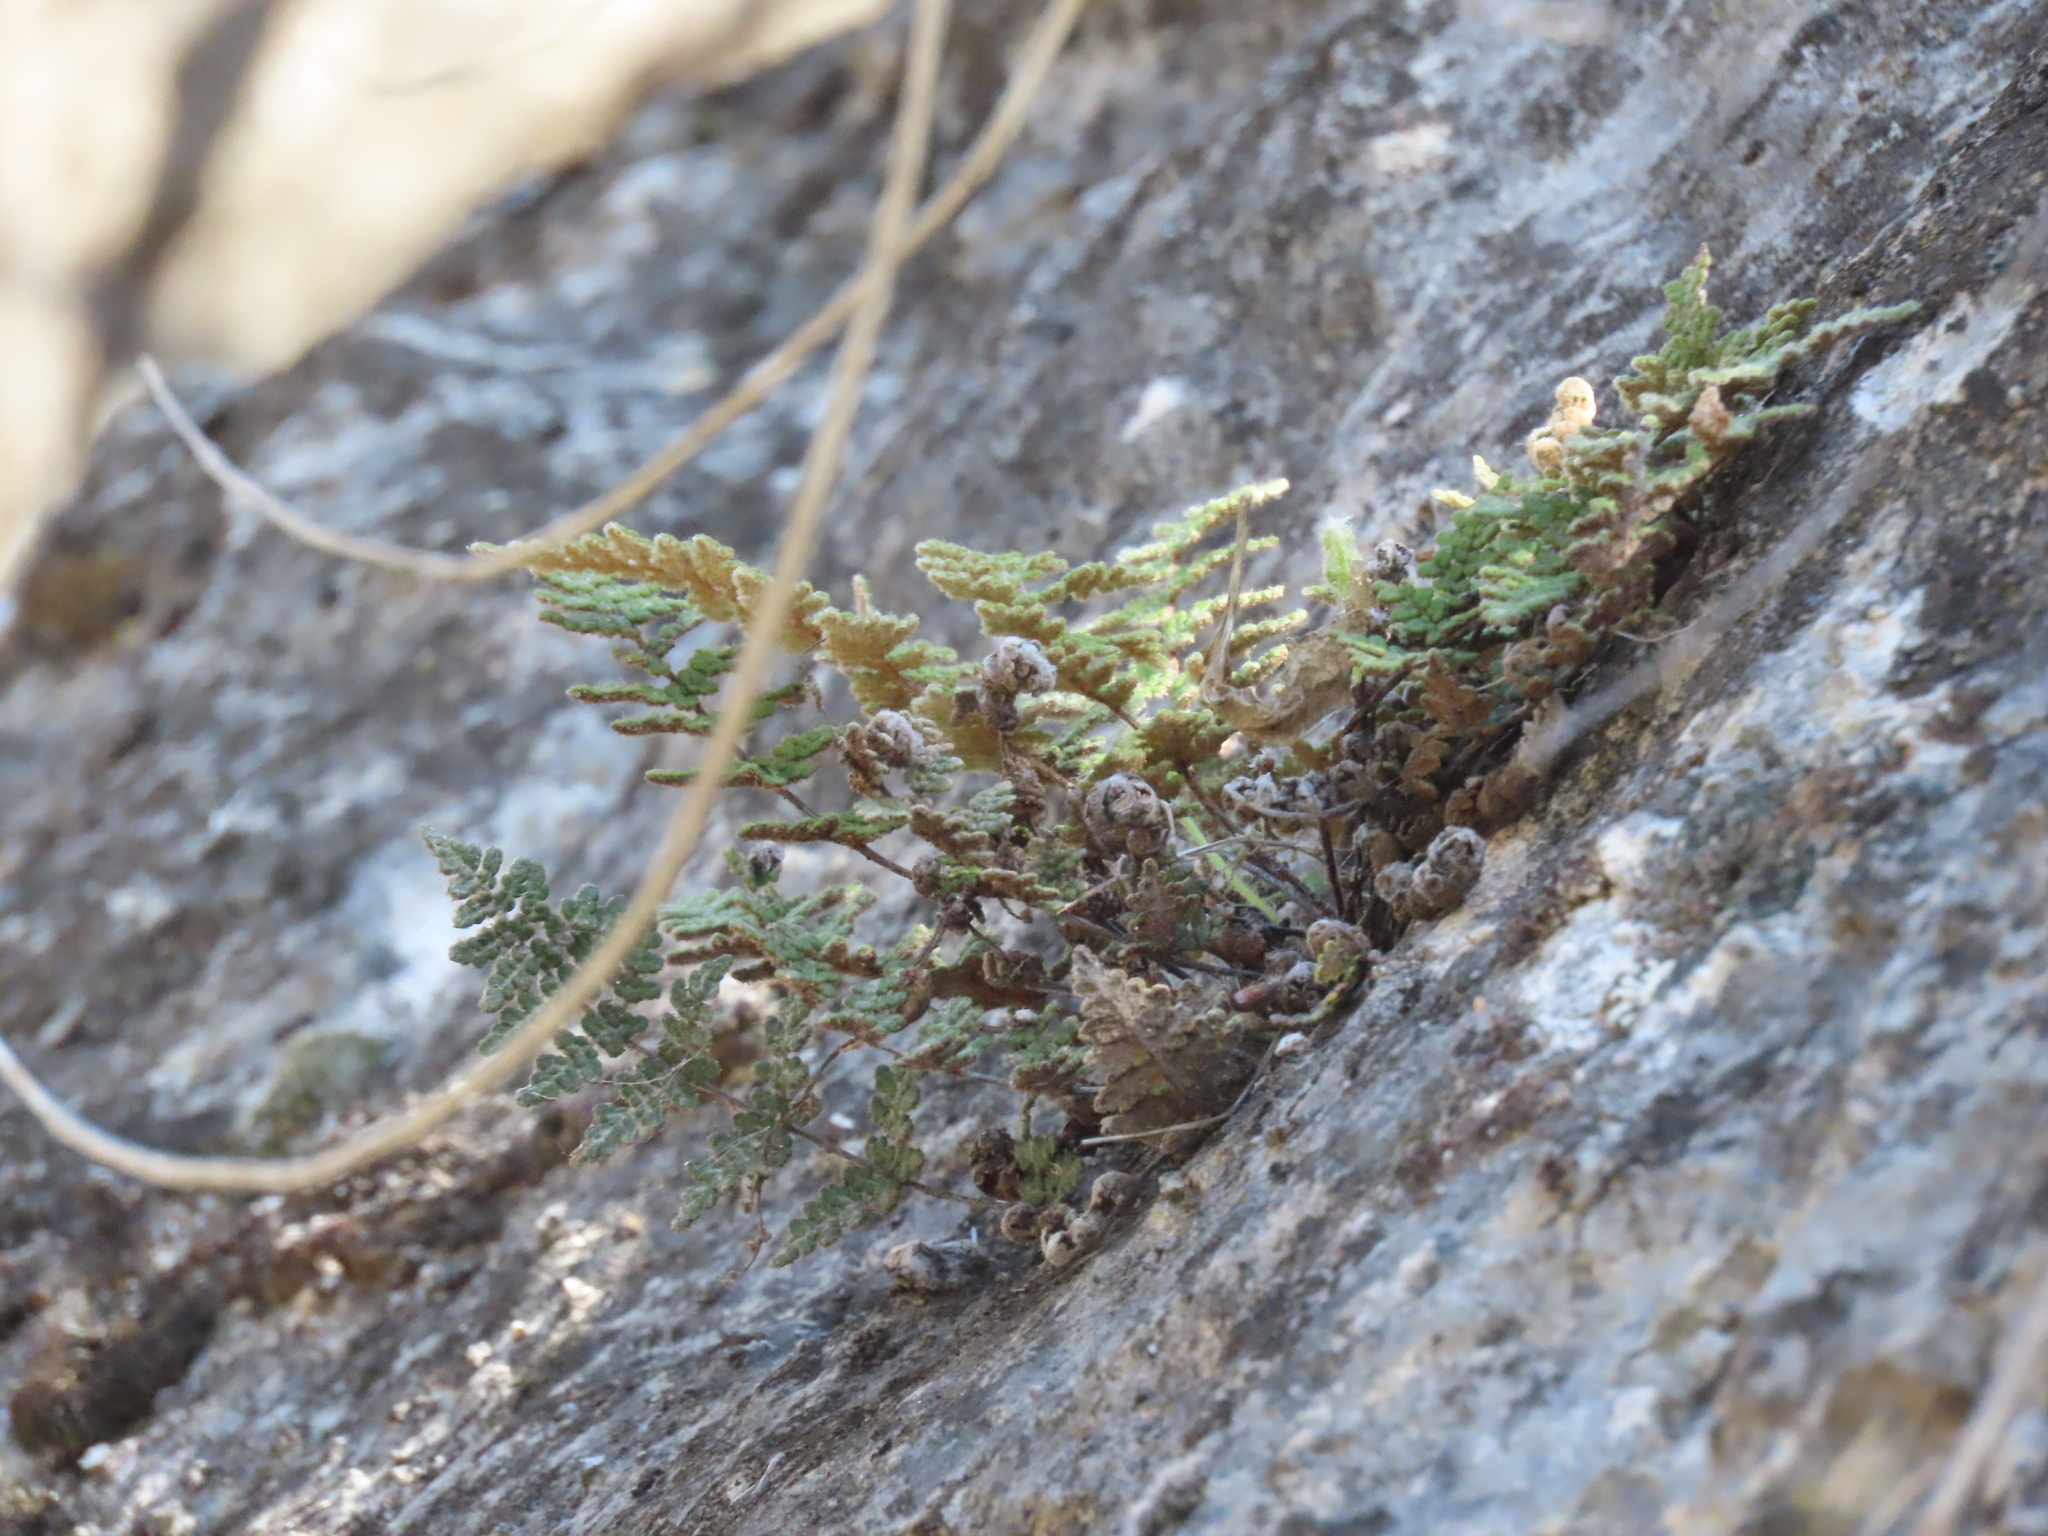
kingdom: Plantae
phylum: Tracheophyta
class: Polypodiopsida
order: Polypodiales
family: Pteridaceae
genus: Myriopteris
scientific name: Myriopteris gracilis
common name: Fee's lip fern
